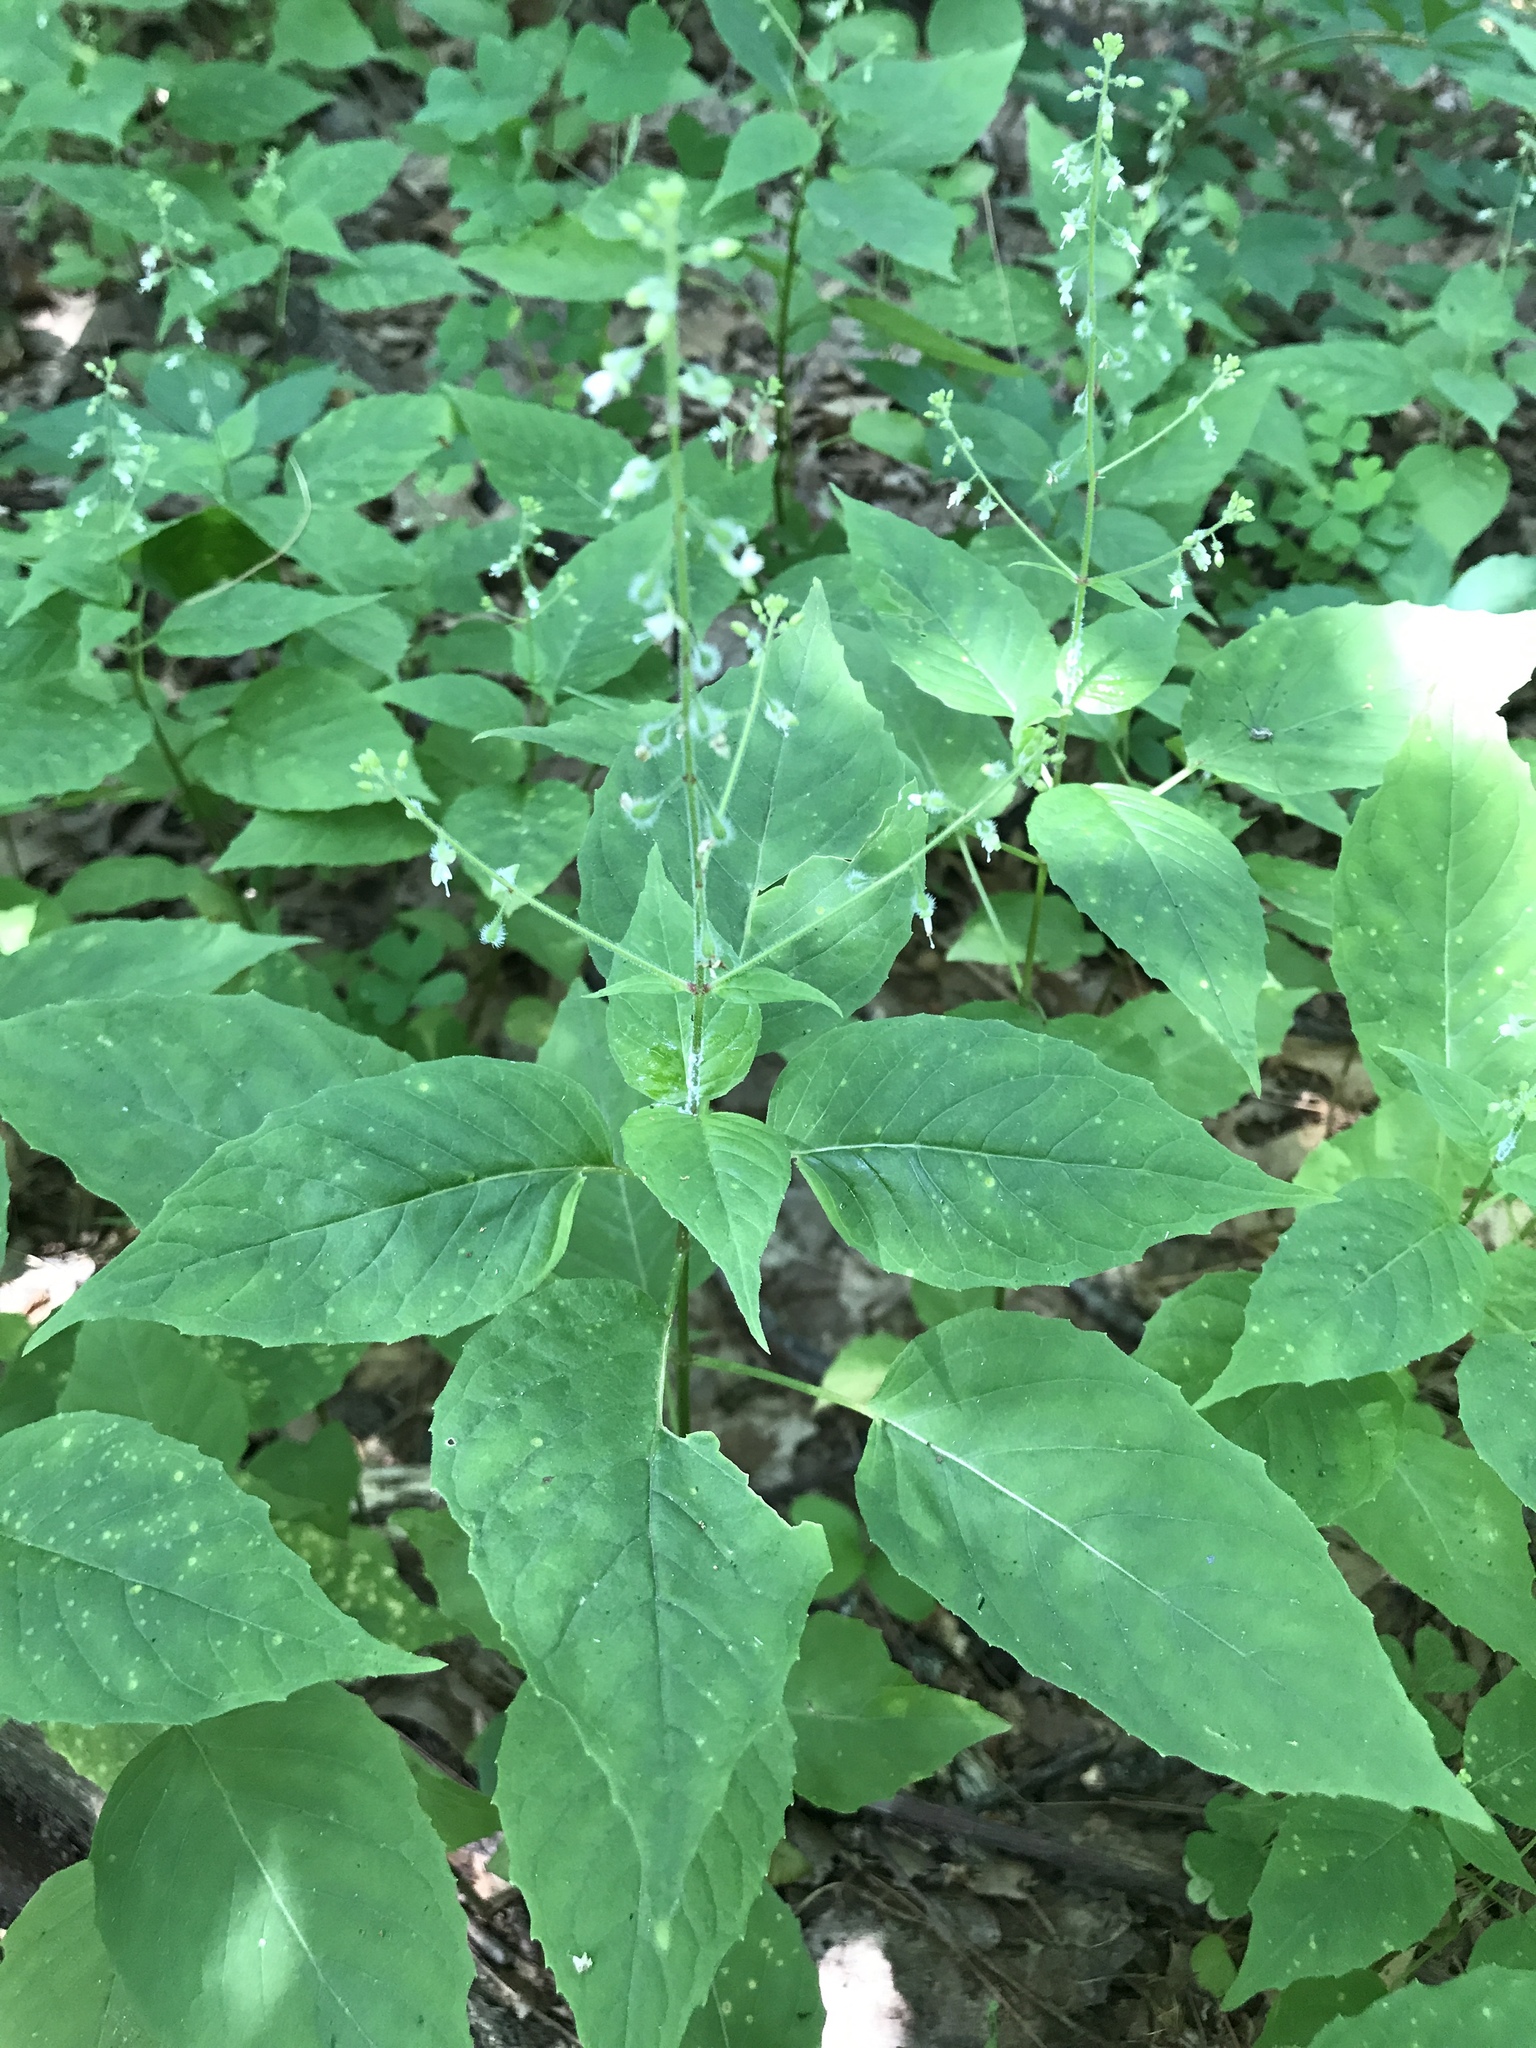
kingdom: Plantae
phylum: Tracheophyta
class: Magnoliopsida
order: Myrtales
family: Onagraceae
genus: Circaea
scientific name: Circaea canadensis
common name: Broad-leaved enchanter's nightshade
